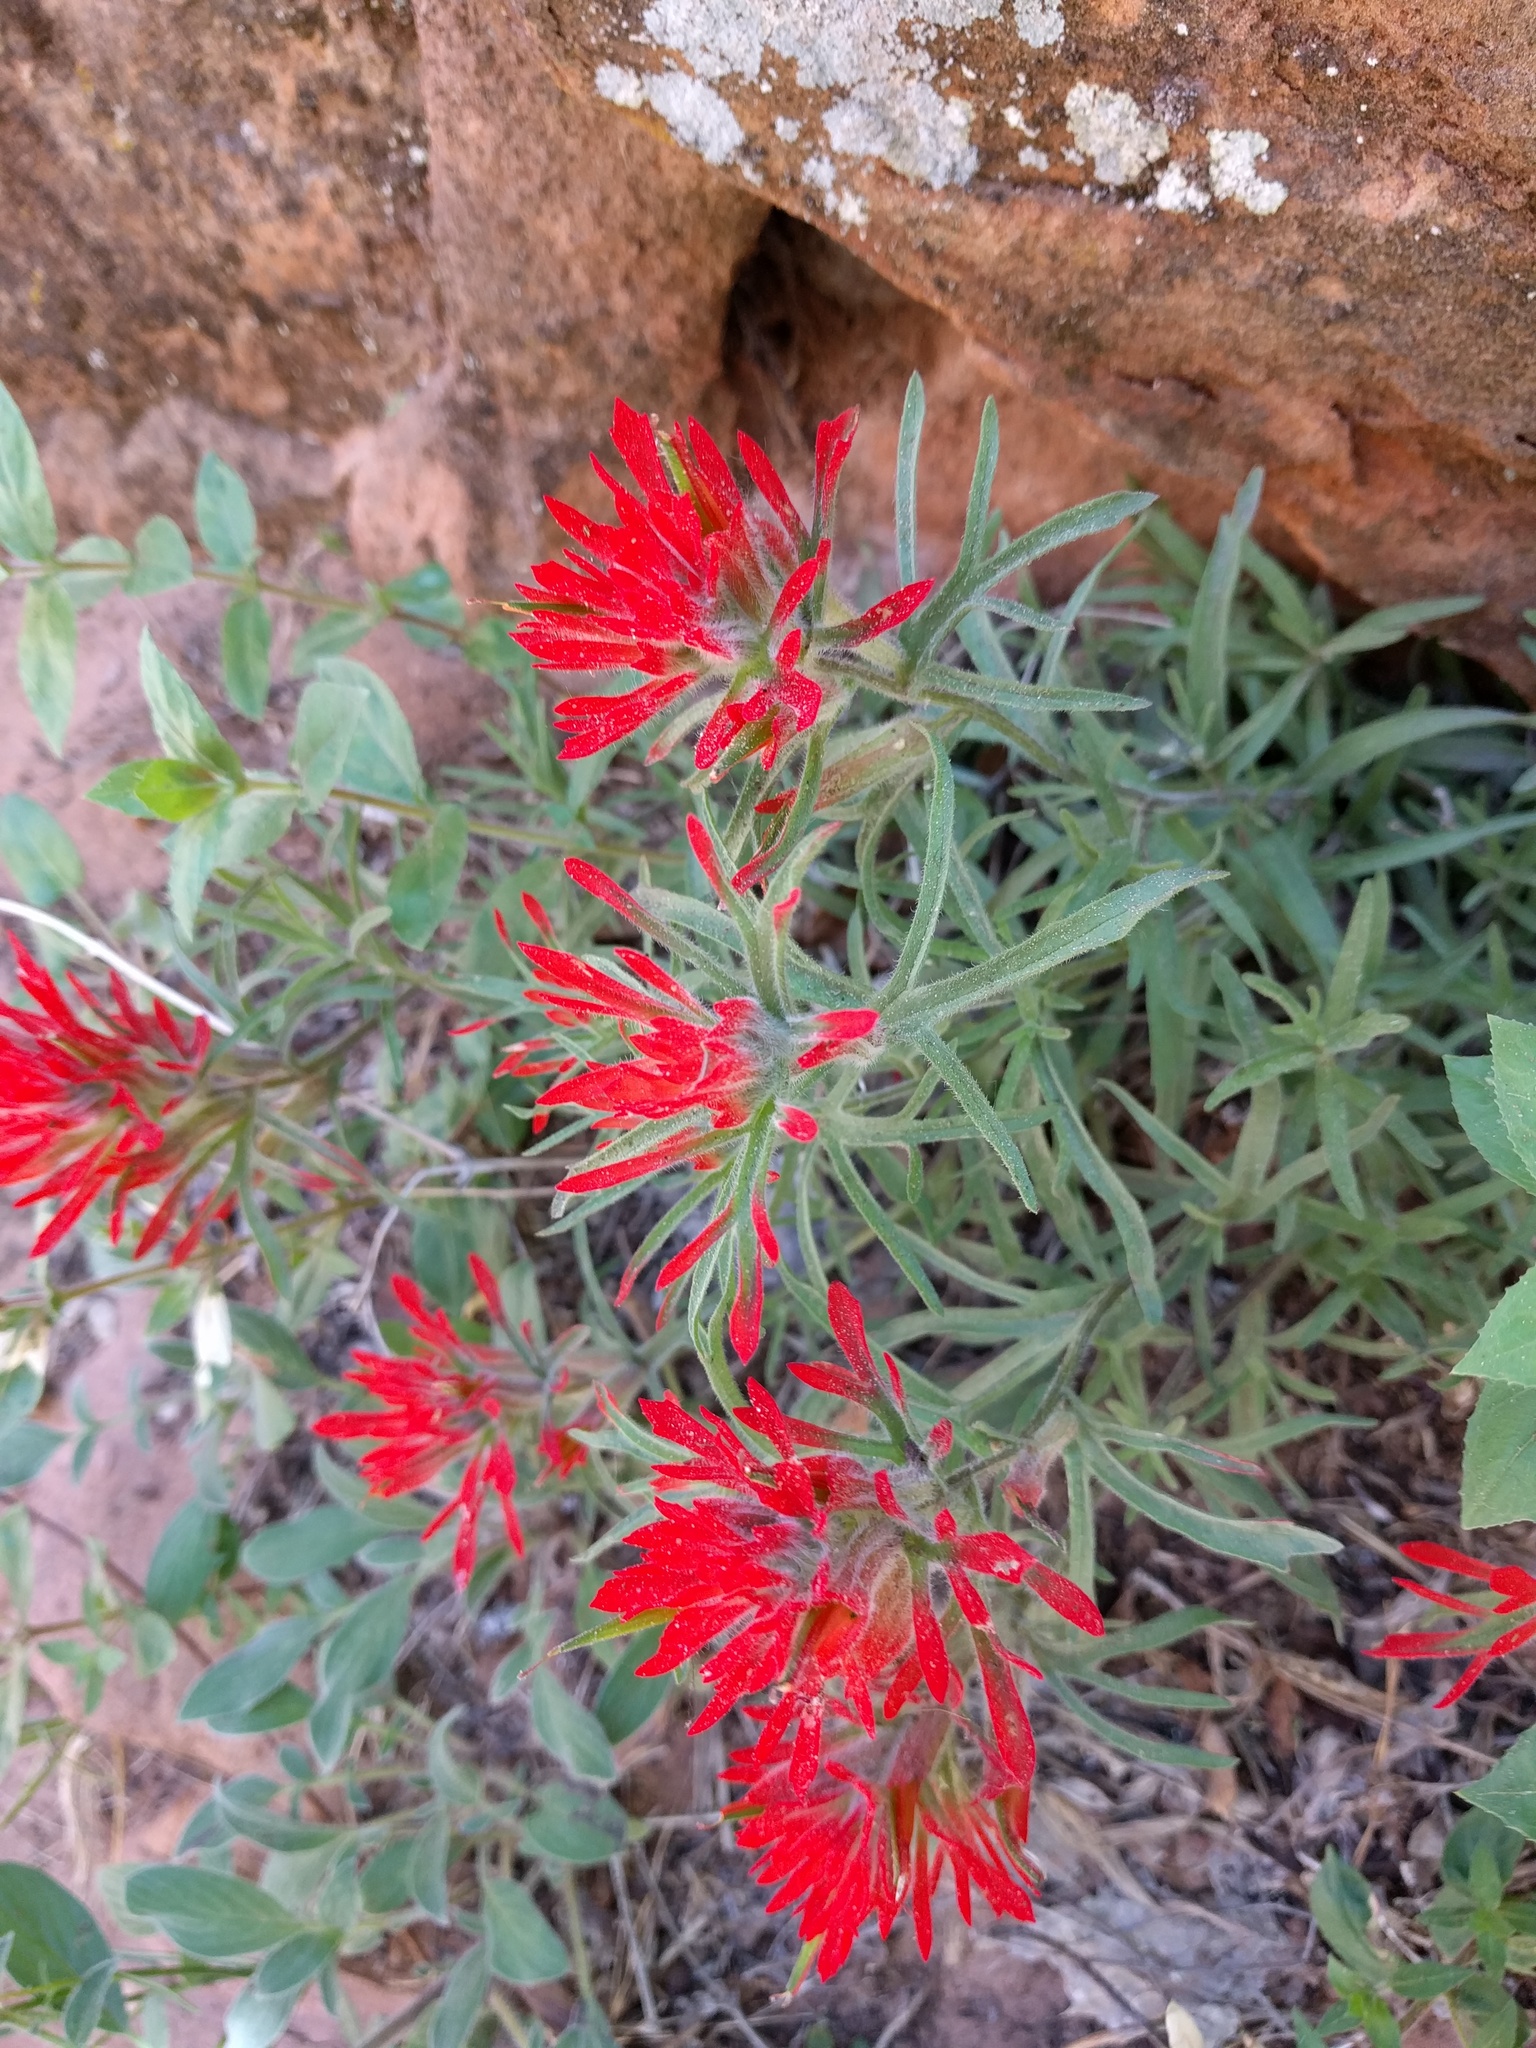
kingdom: Plantae
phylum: Tracheophyta
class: Magnoliopsida
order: Lamiales
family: Orobanchaceae
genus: Castilleja
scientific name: Castilleja scabrida
